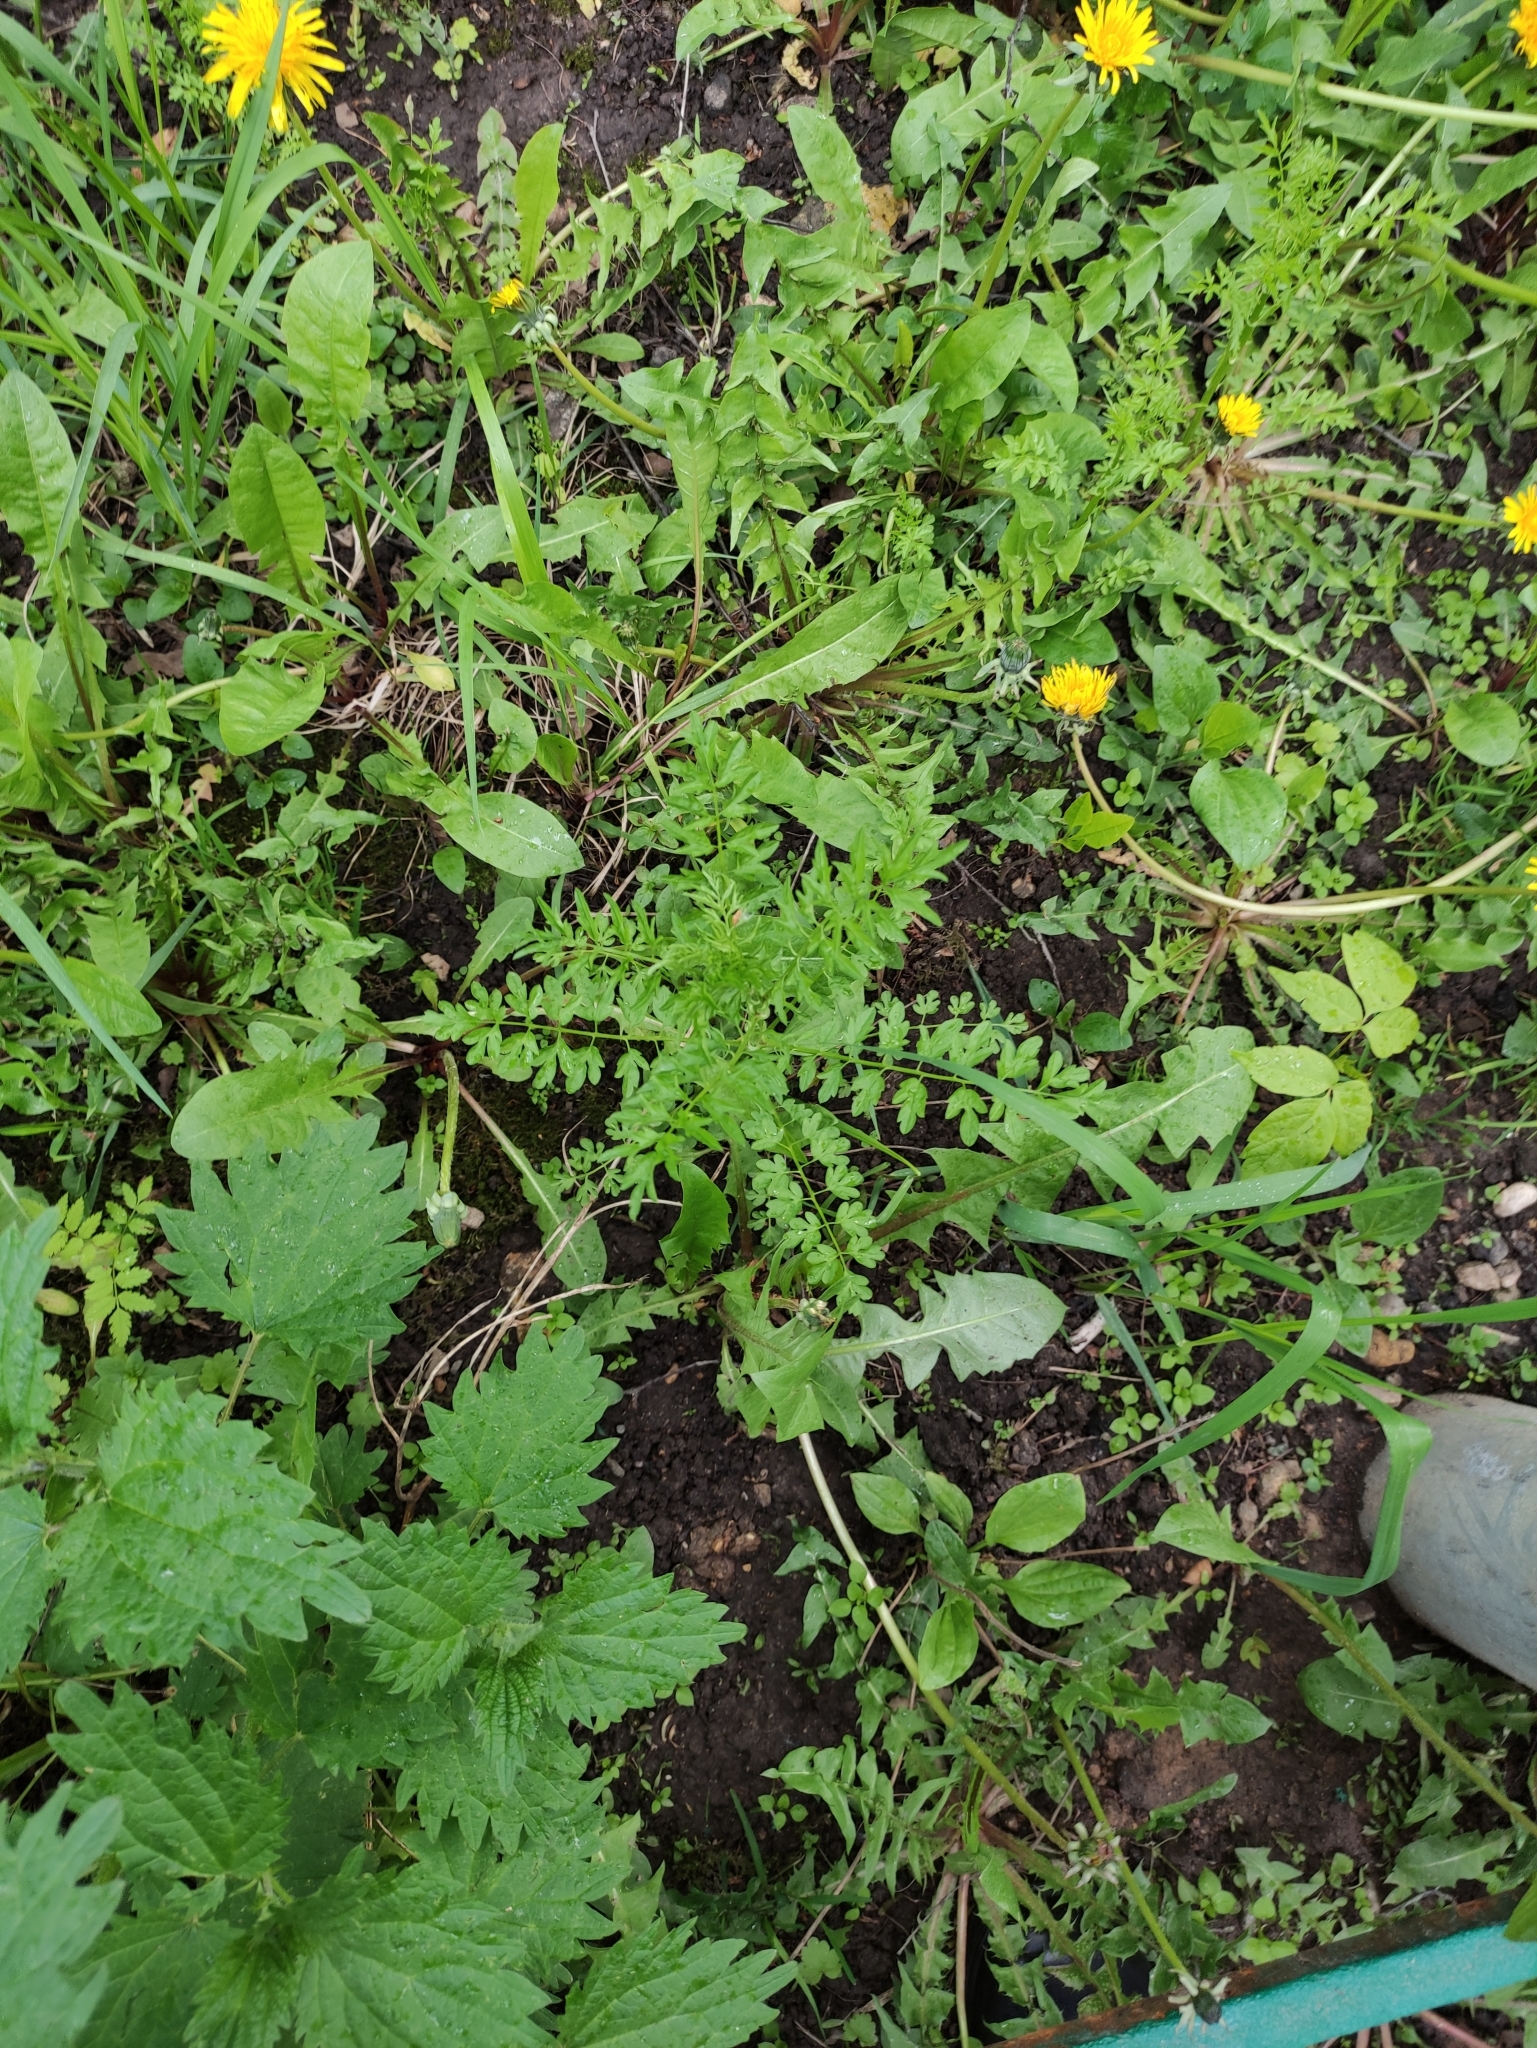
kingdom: Plantae
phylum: Tracheophyta
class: Magnoliopsida
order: Brassicales
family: Brassicaceae
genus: Cardamine
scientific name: Cardamine impatiens
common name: Narrow-leaved bitter-cress
